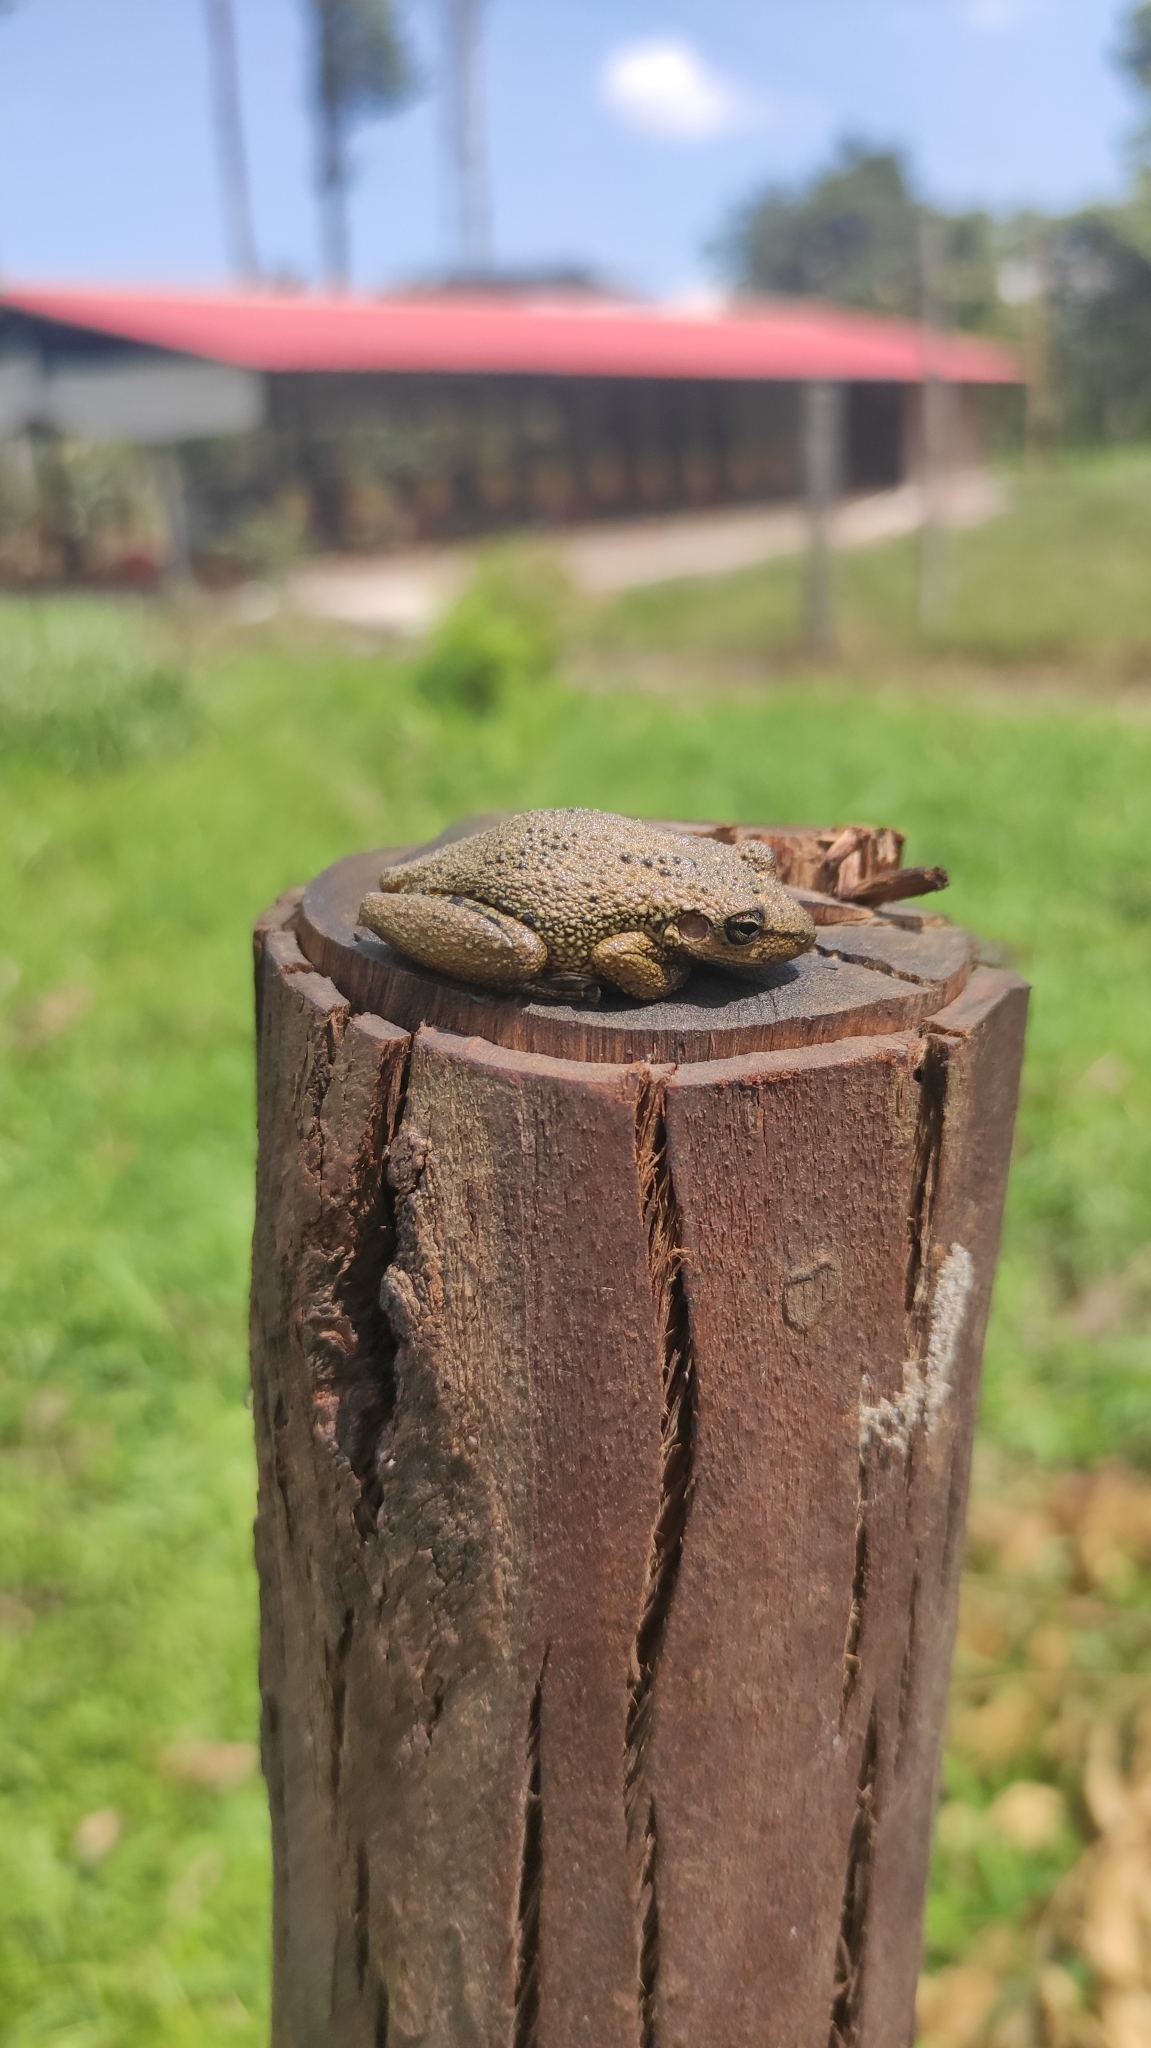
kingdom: Animalia
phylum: Chordata
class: Amphibia
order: Anura
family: Hylidae
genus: Scinax
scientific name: Scinax caprarius
